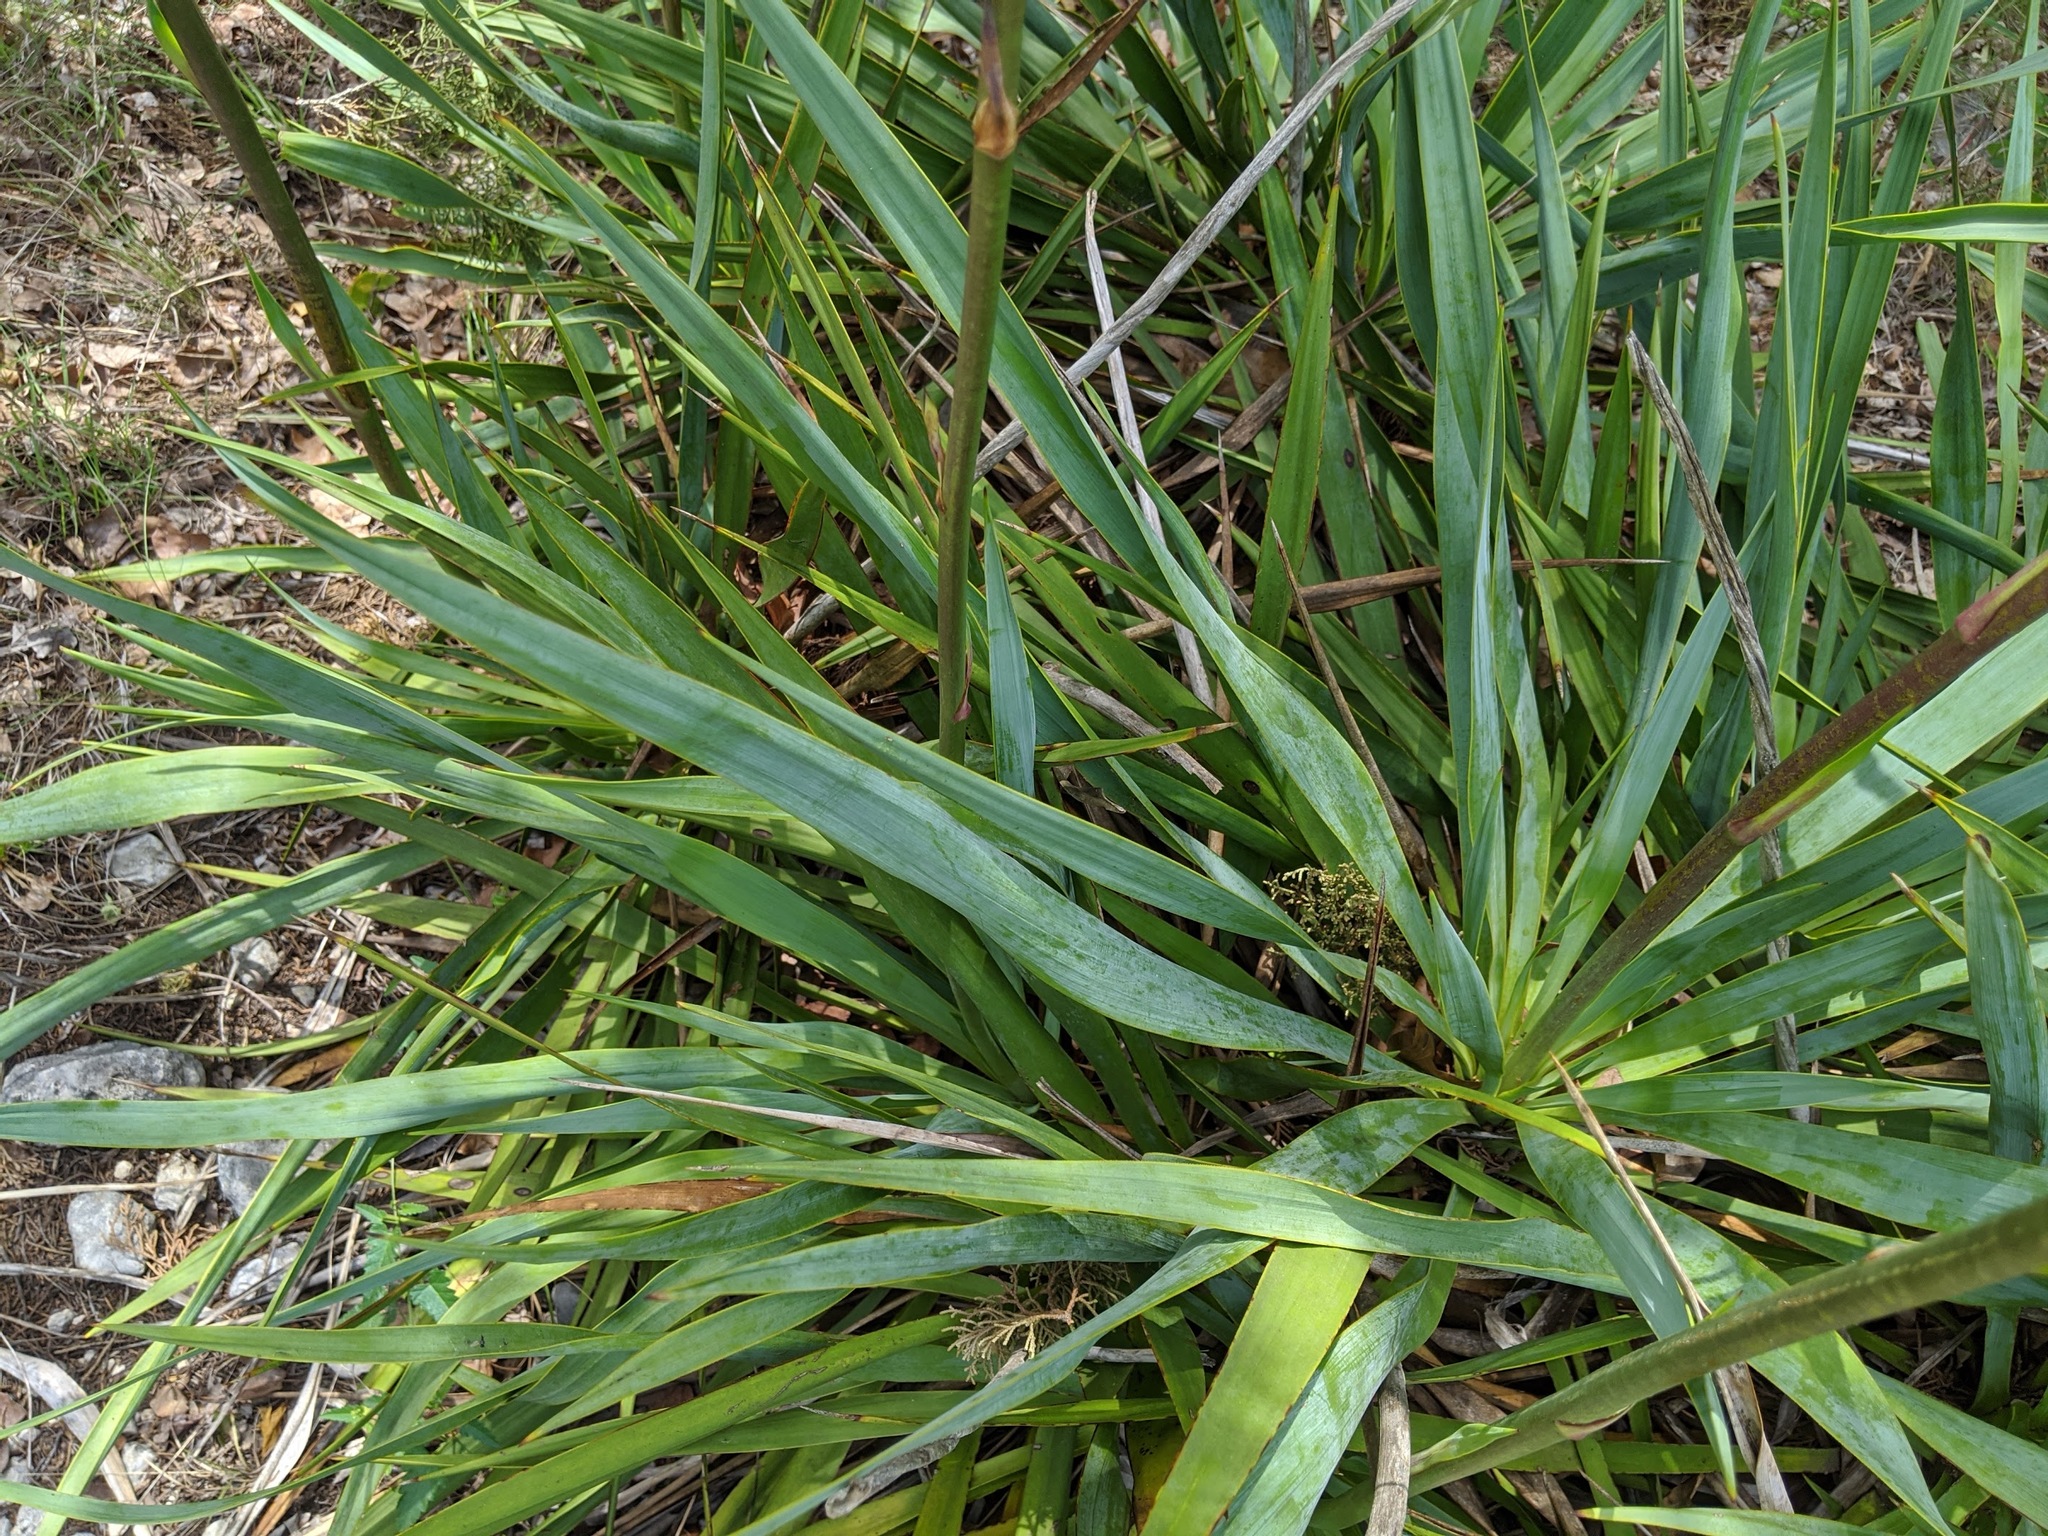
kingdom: Plantae
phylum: Tracheophyta
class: Liliopsida
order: Asparagales
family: Asparagaceae
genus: Yucca
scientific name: Yucca rupicola
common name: Twisted-leaf spanish-dagger
